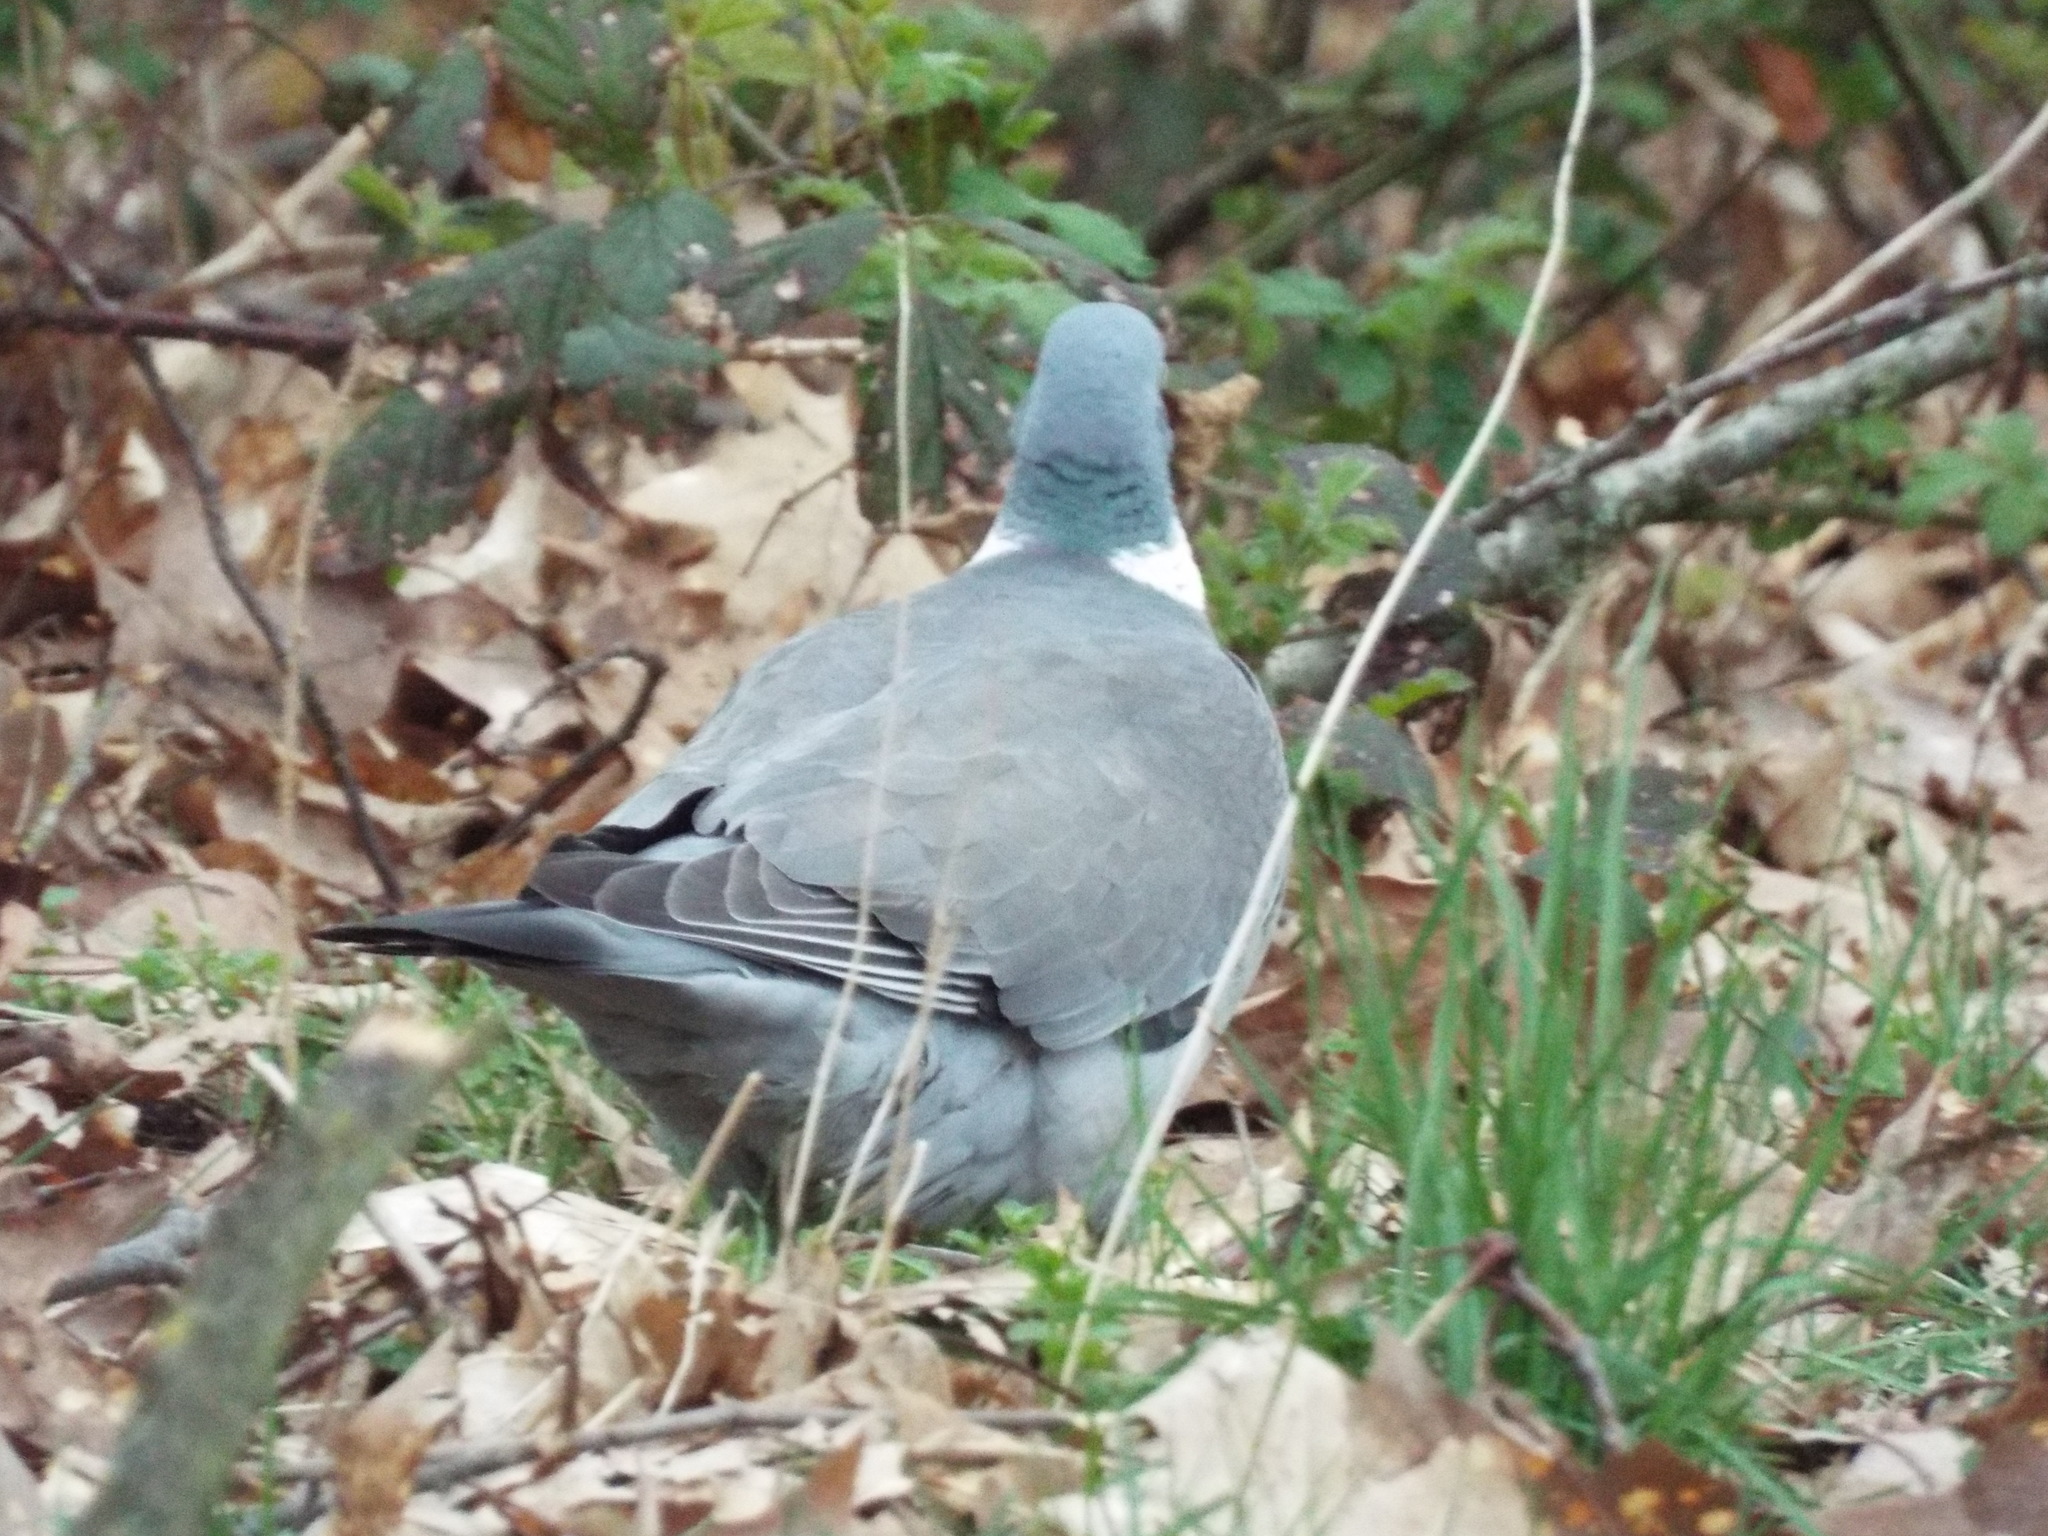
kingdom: Animalia
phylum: Chordata
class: Aves
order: Columbiformes
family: Columbidae
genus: Columba
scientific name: Columba palumbus
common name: Common wood pigeon
